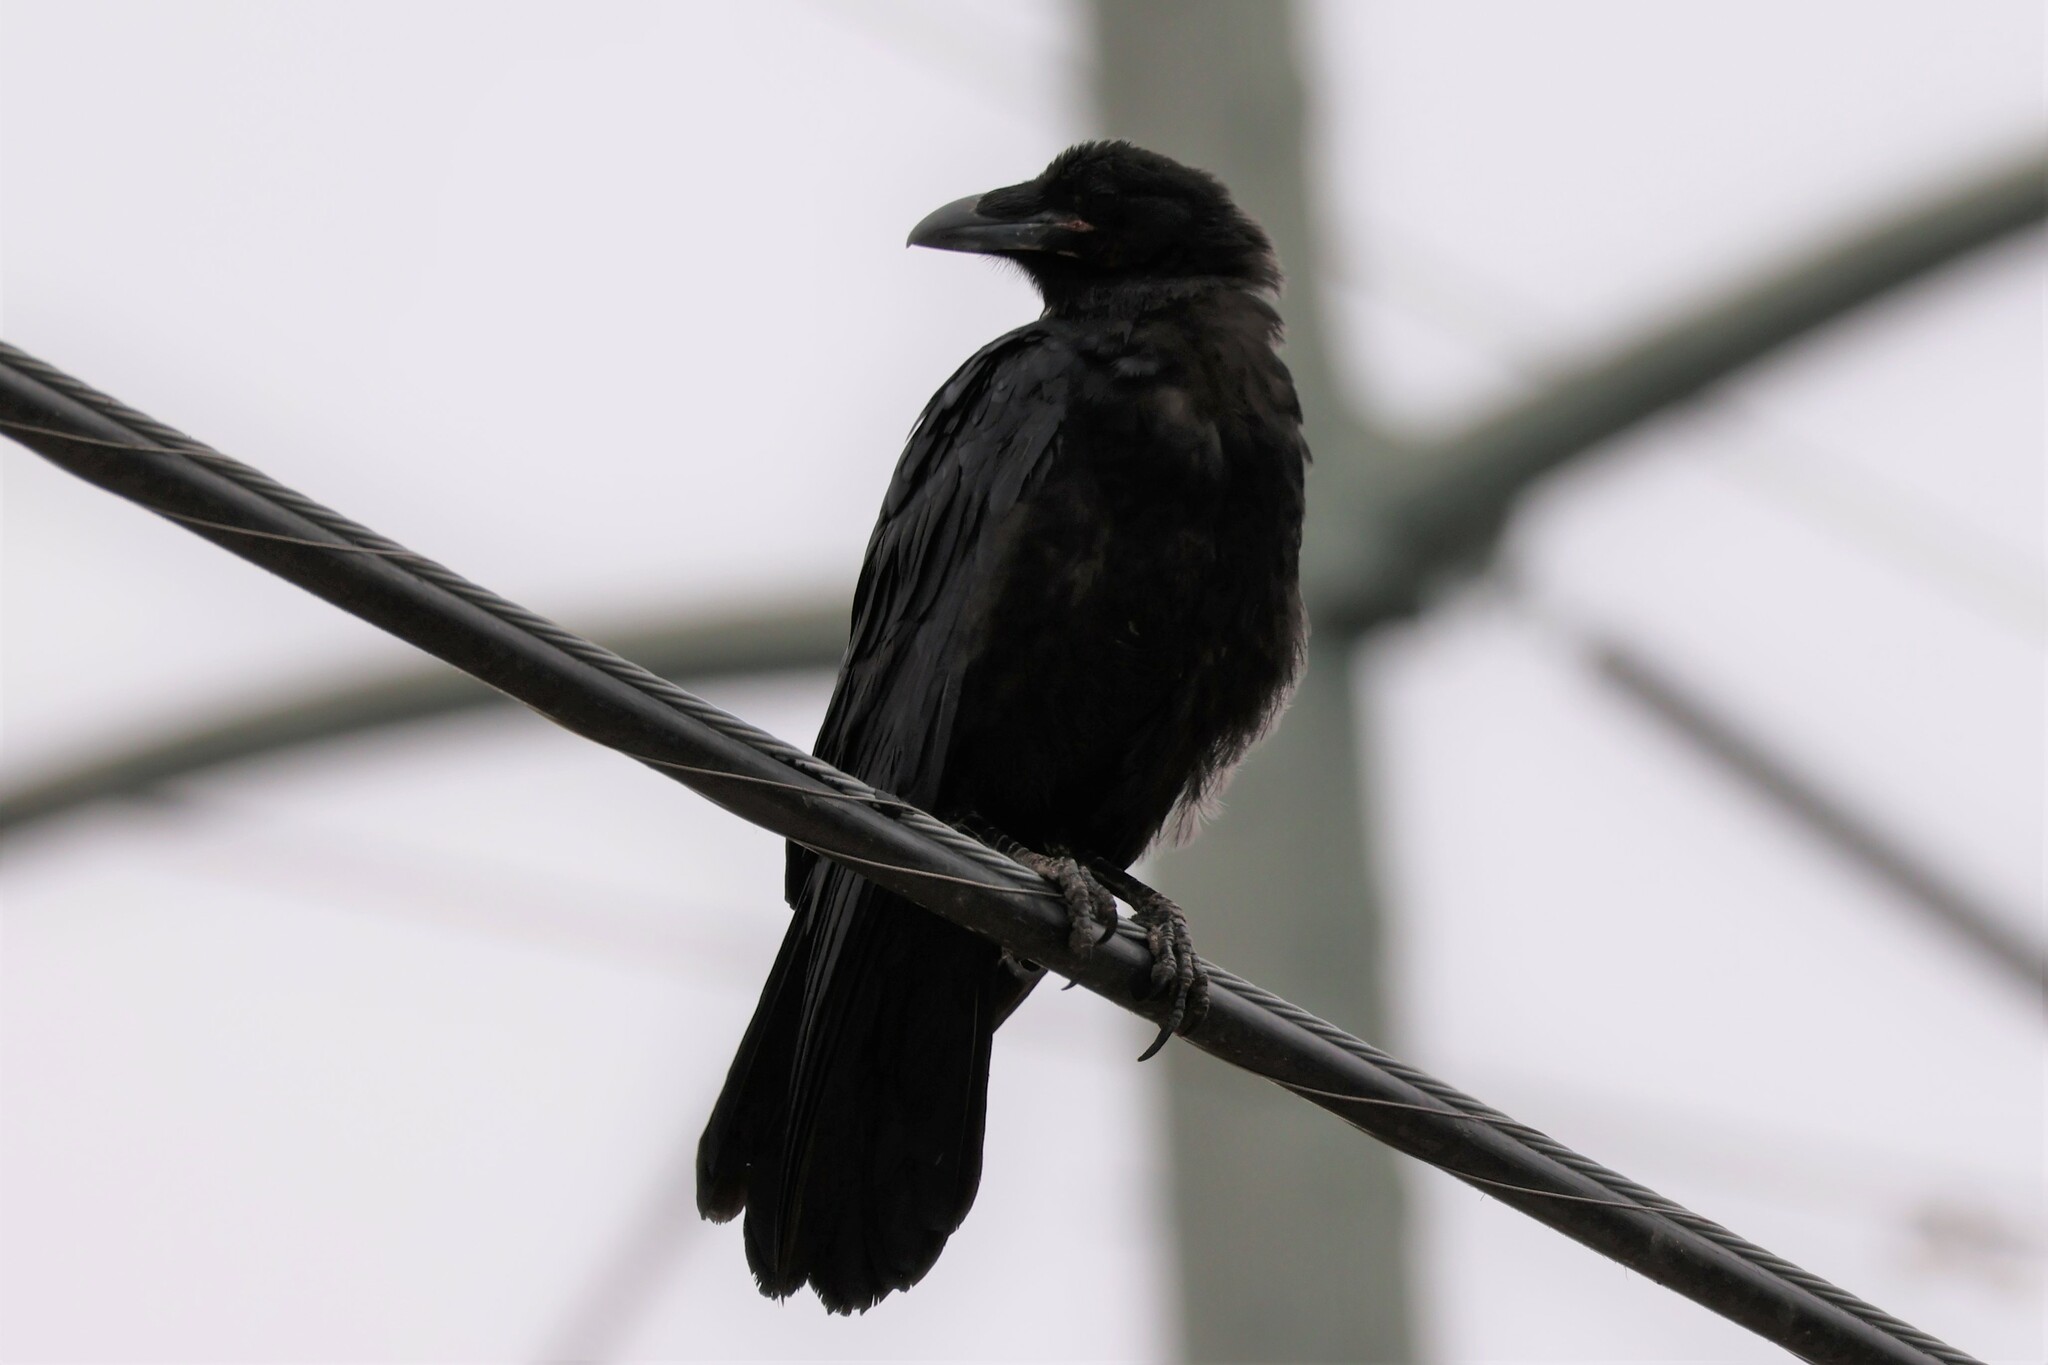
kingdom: Animalia
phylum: Chordata
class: Aves
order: Passeriformes
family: Corvidae
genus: Corvus
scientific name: Corvus corax
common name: Common raven
